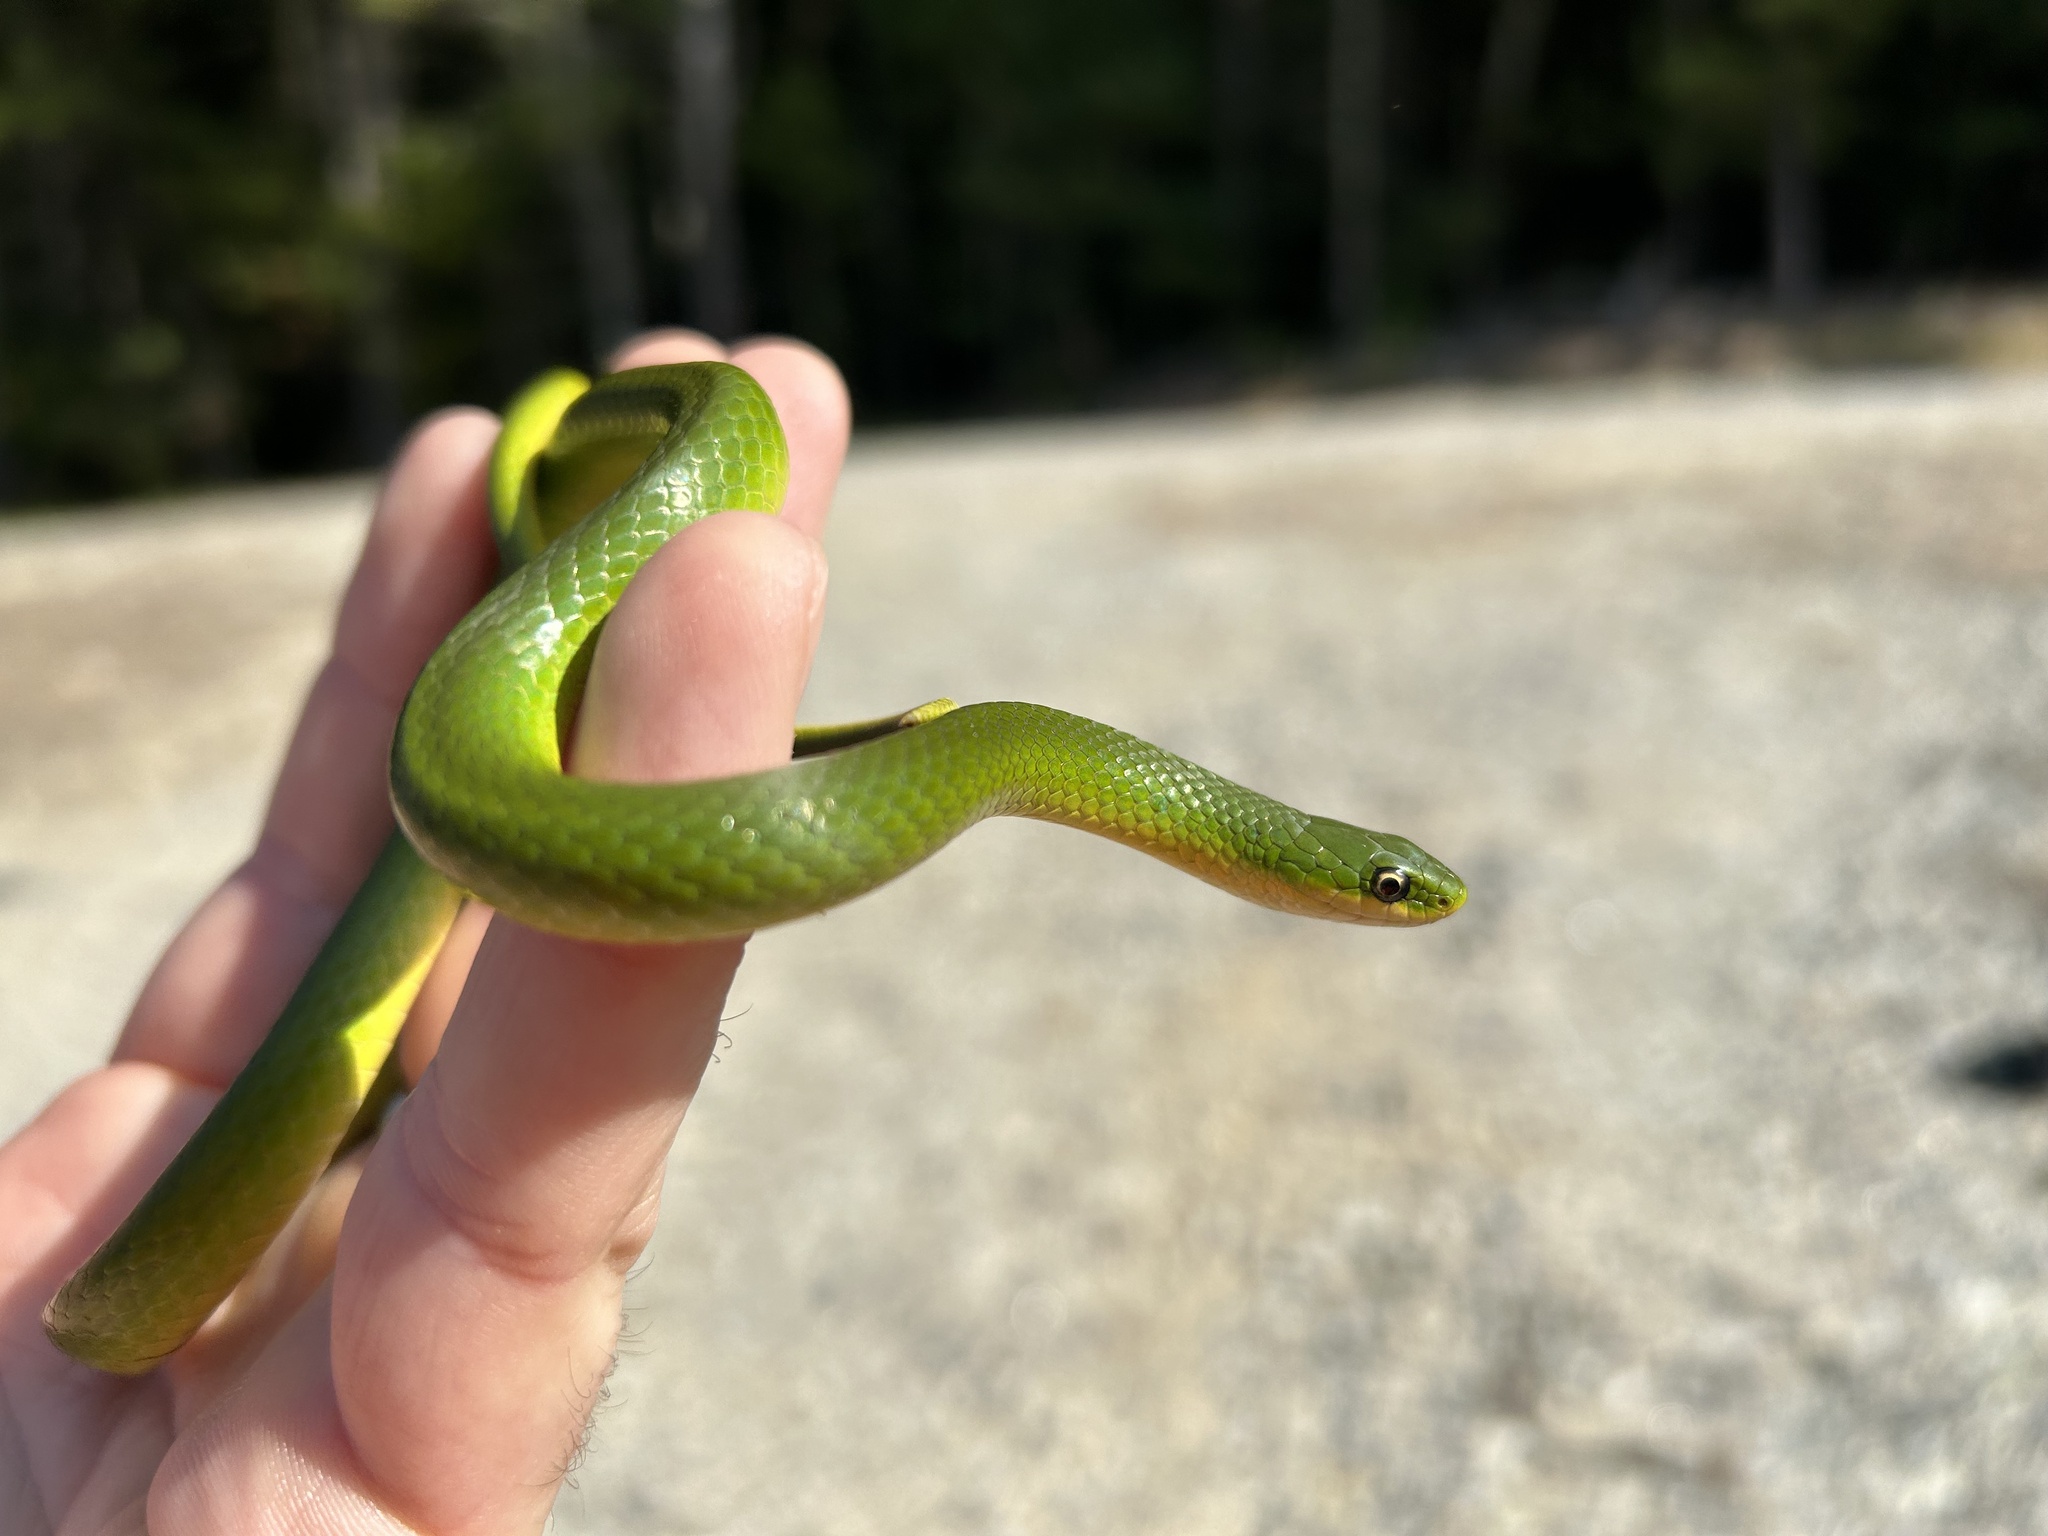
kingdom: Animalia
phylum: Chordata
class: Squamata
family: Colubridae
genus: Opheodrys
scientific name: Opheodrys vernalis
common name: Smooth green snake
